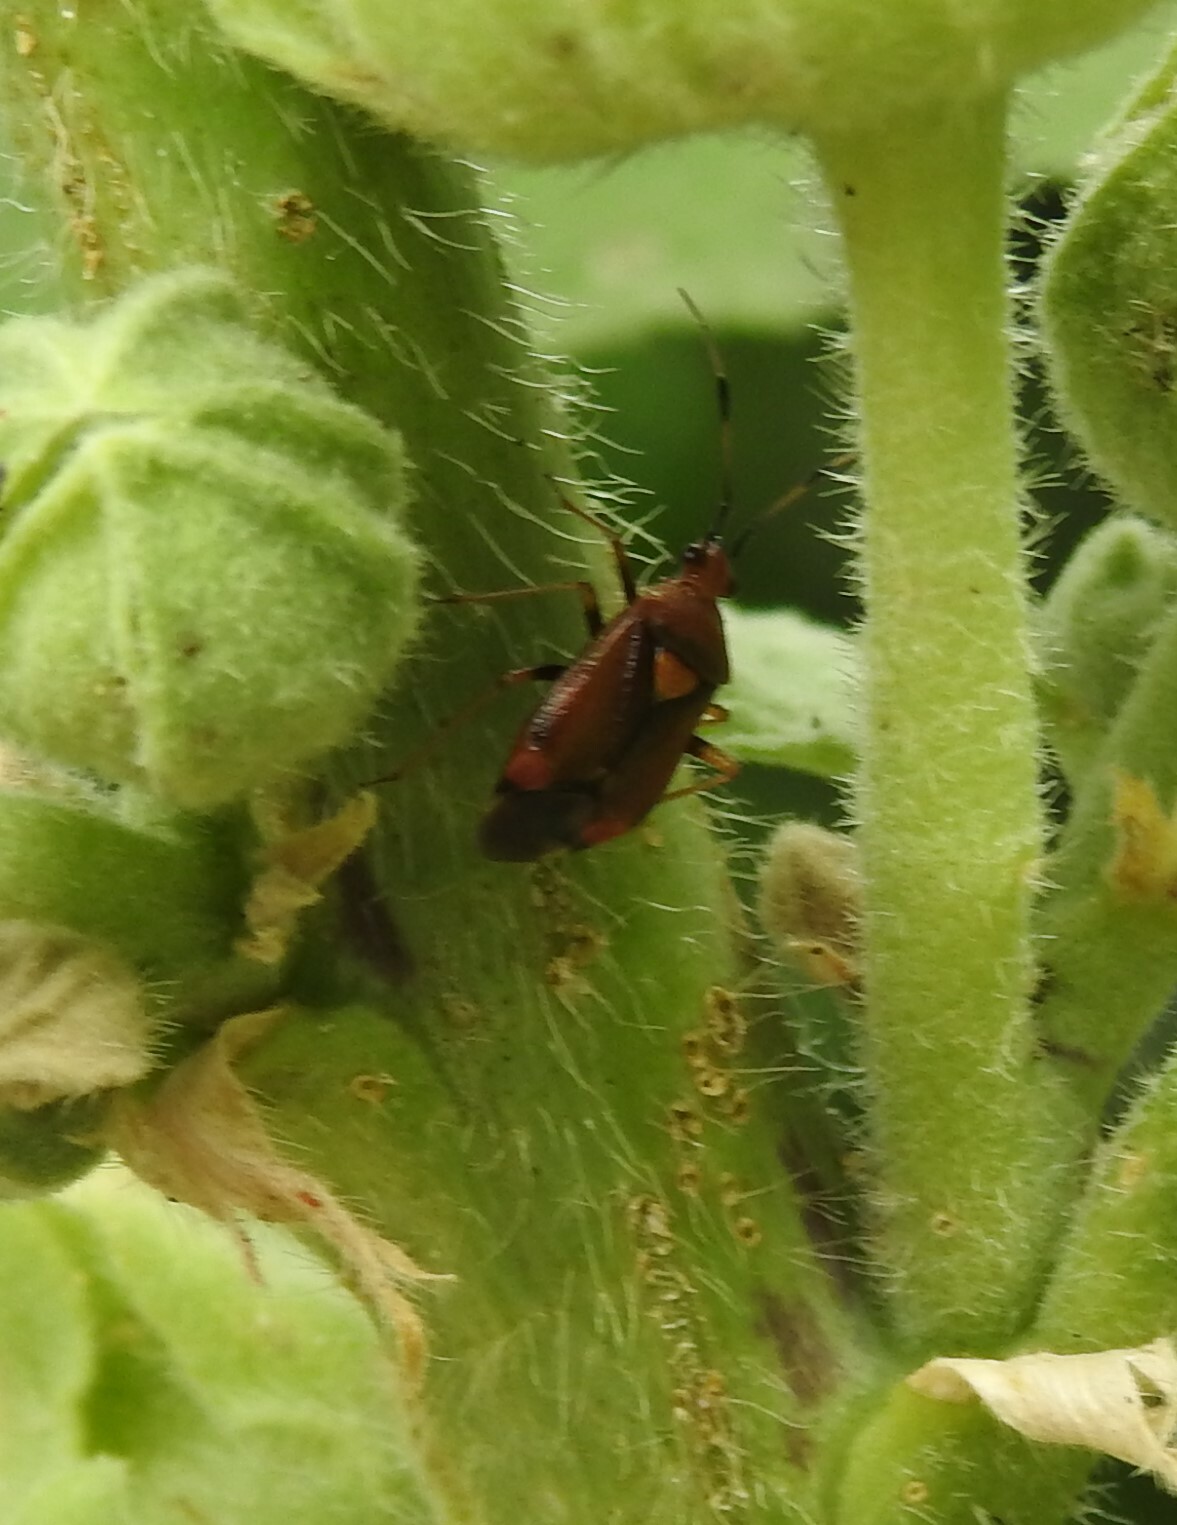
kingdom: Animalia
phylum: Arthropoda
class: Insecta
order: Hemiptera
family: Miridae
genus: Deraeocoris
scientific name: Deraeocoris ruber
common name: Plant bug
